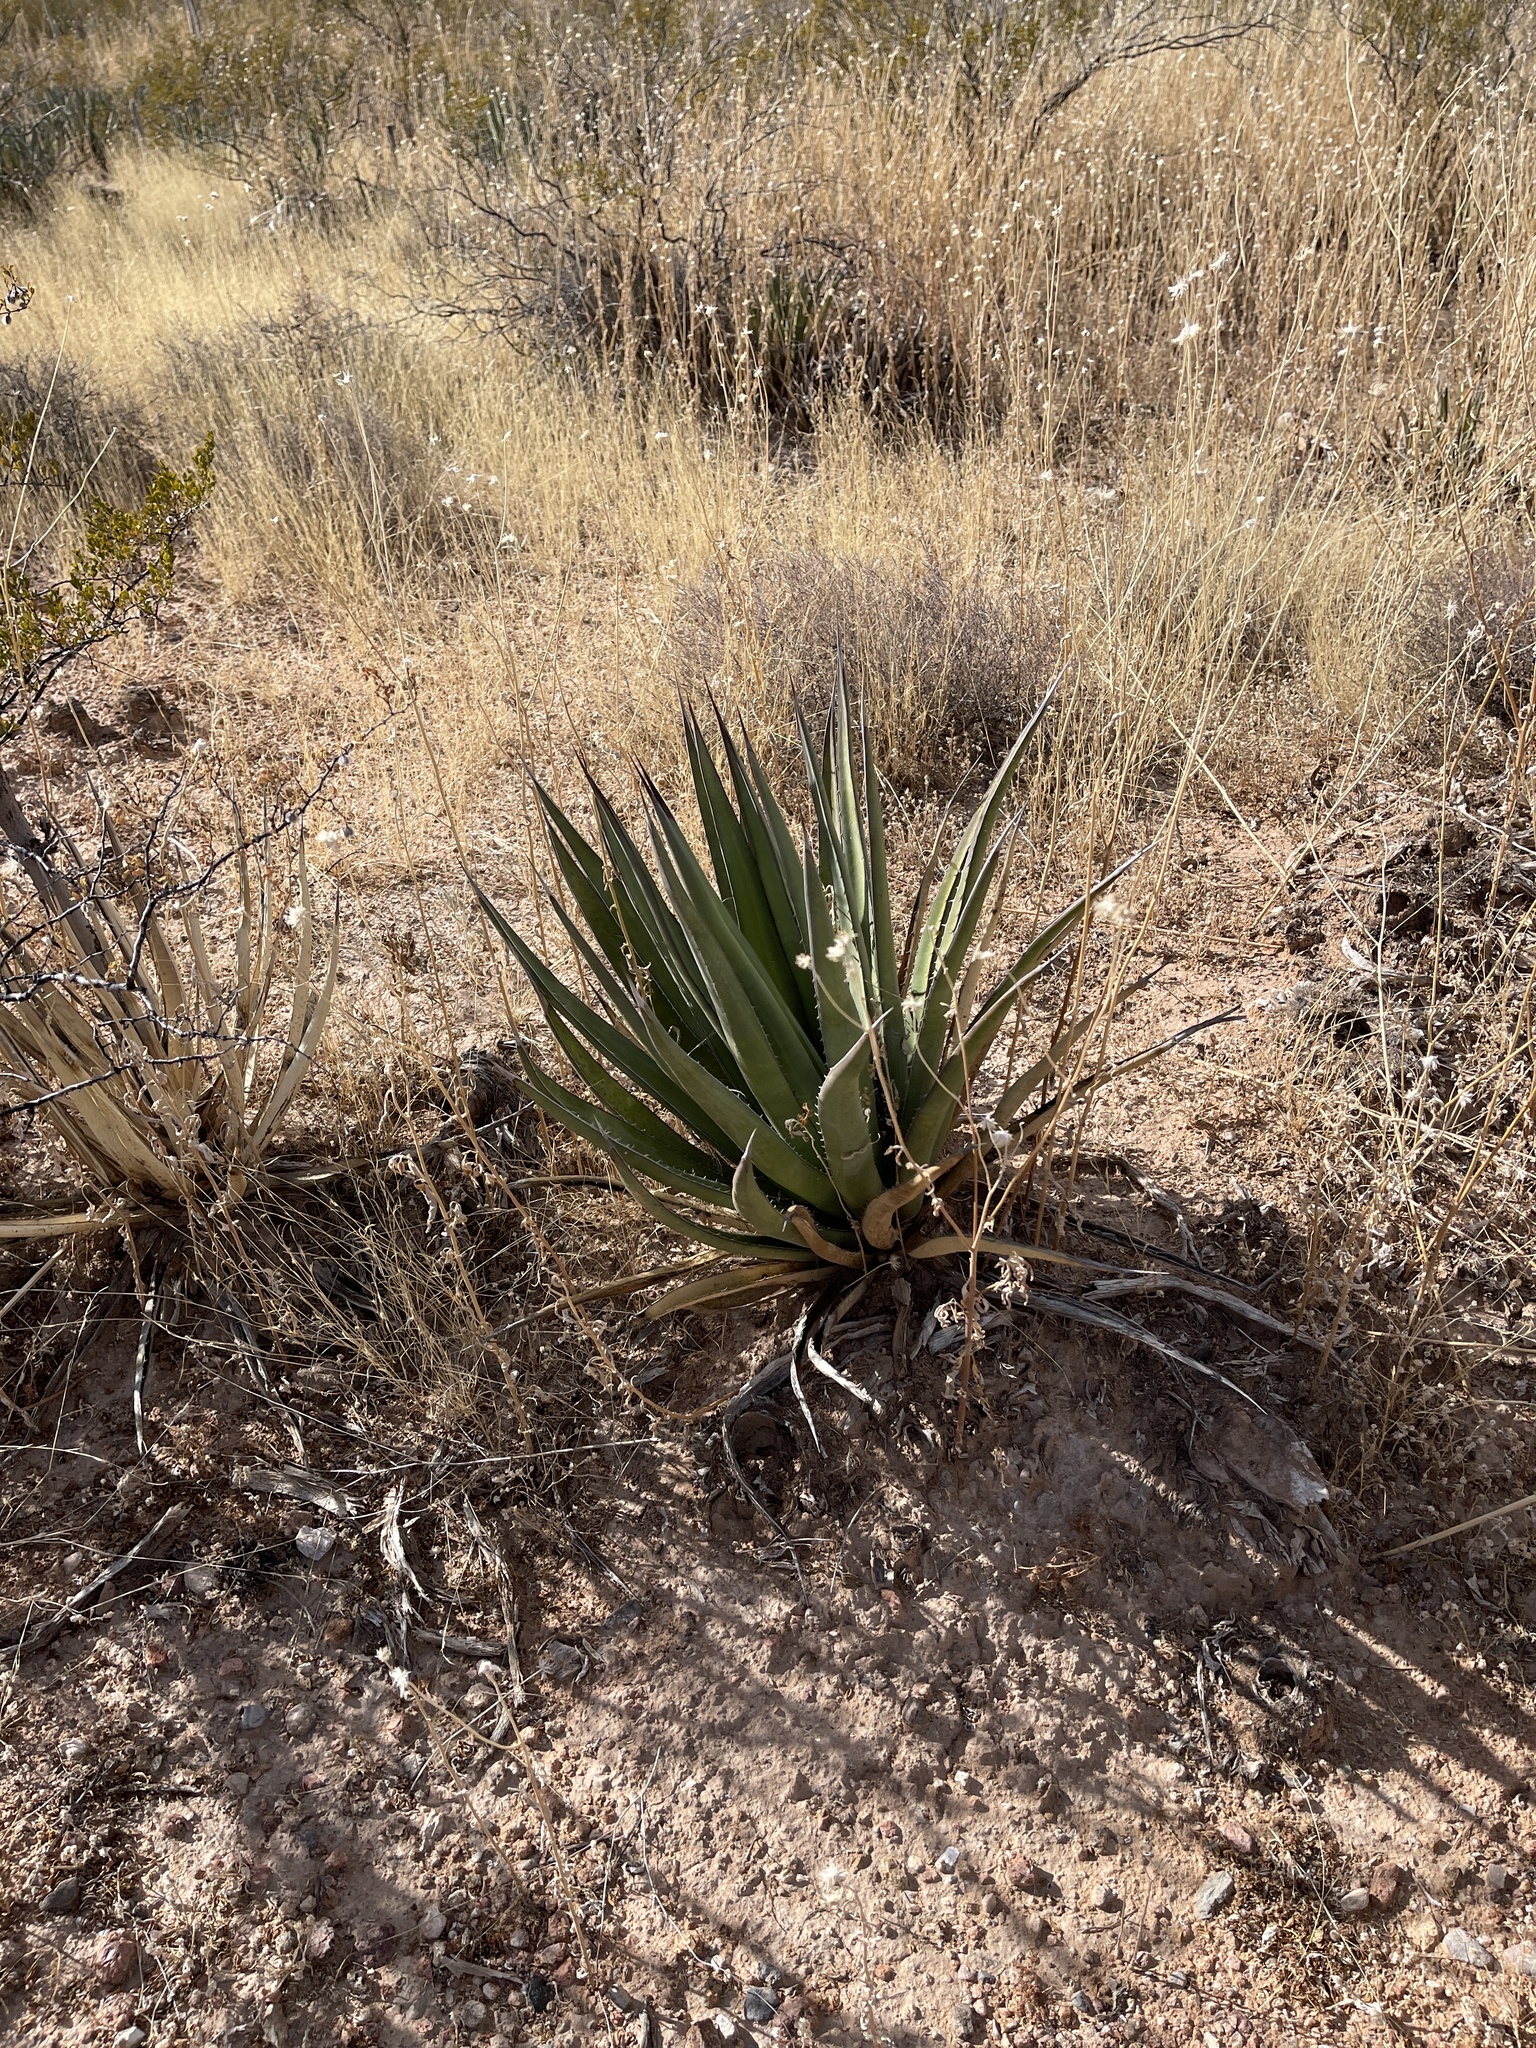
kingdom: Plantae
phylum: Tracheophyta
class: Liliopsida
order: Asparagales
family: Asparagaceae
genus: Agave
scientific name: Agave lechuguilla
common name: Lecheguilla agave
